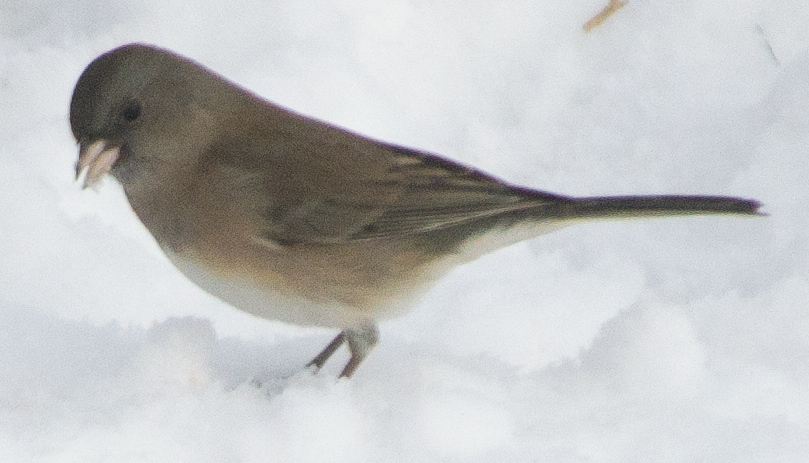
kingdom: Animalia
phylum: Chordata
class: Aves
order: Passeriformes
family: Passerellidae
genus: Junco
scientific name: Junco hyemalis
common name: Dark-eyed junco
